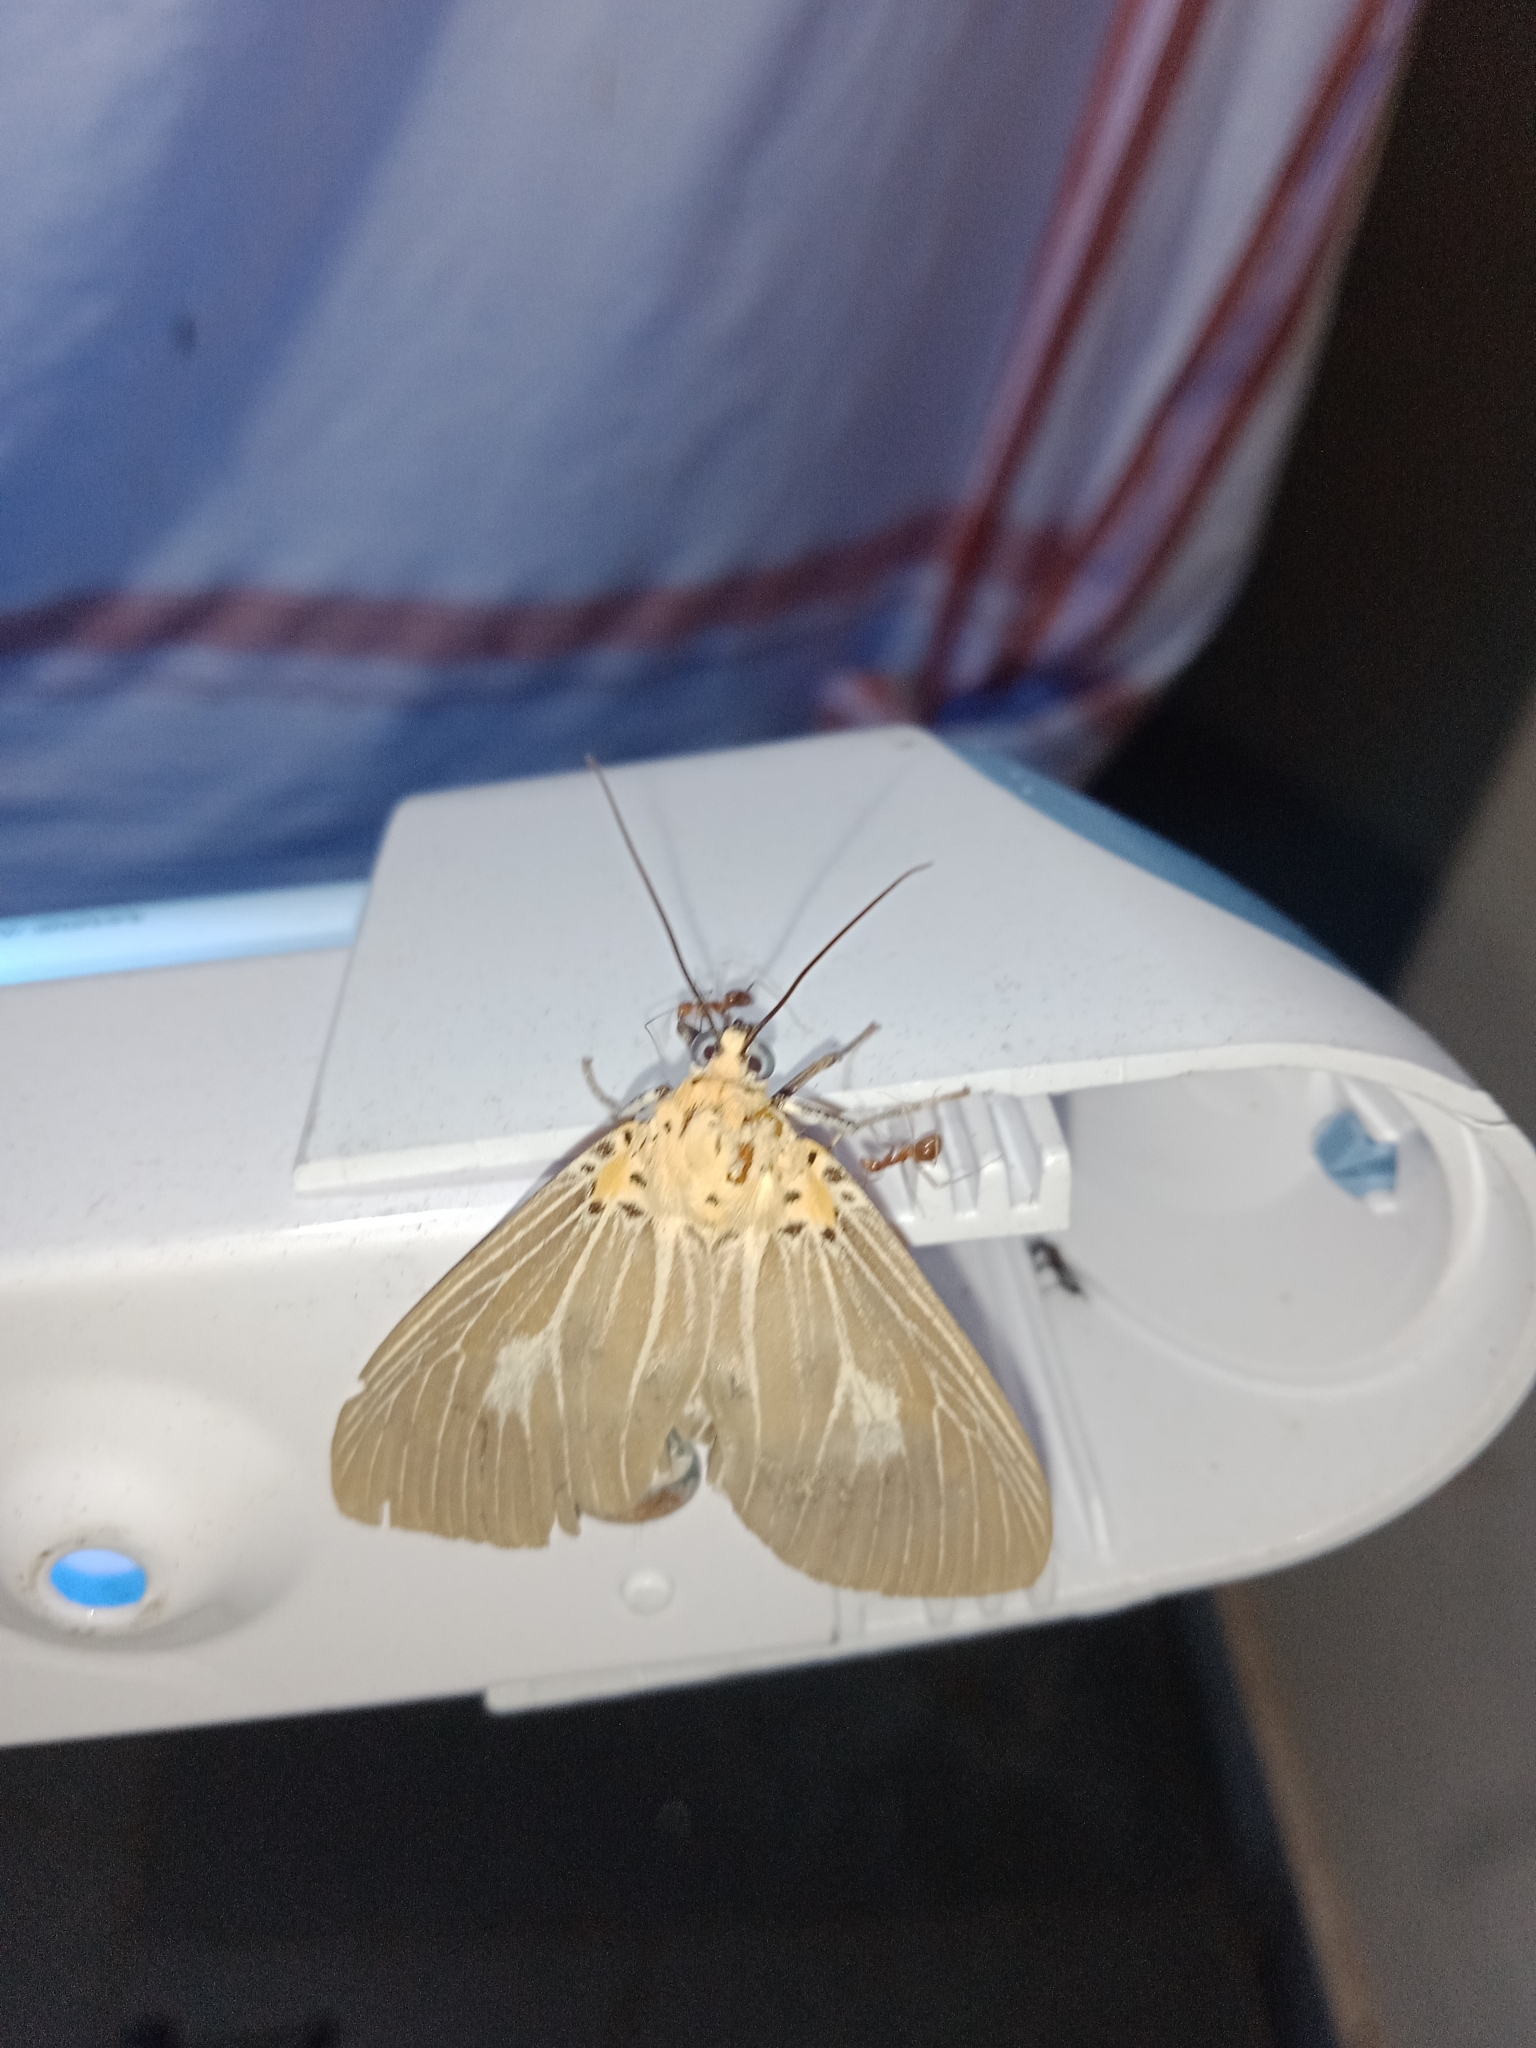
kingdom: Animalia
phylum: Arthropoda
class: Insecta
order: Lepidoptera
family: Erebidae
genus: Asota
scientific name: Asota caricae
